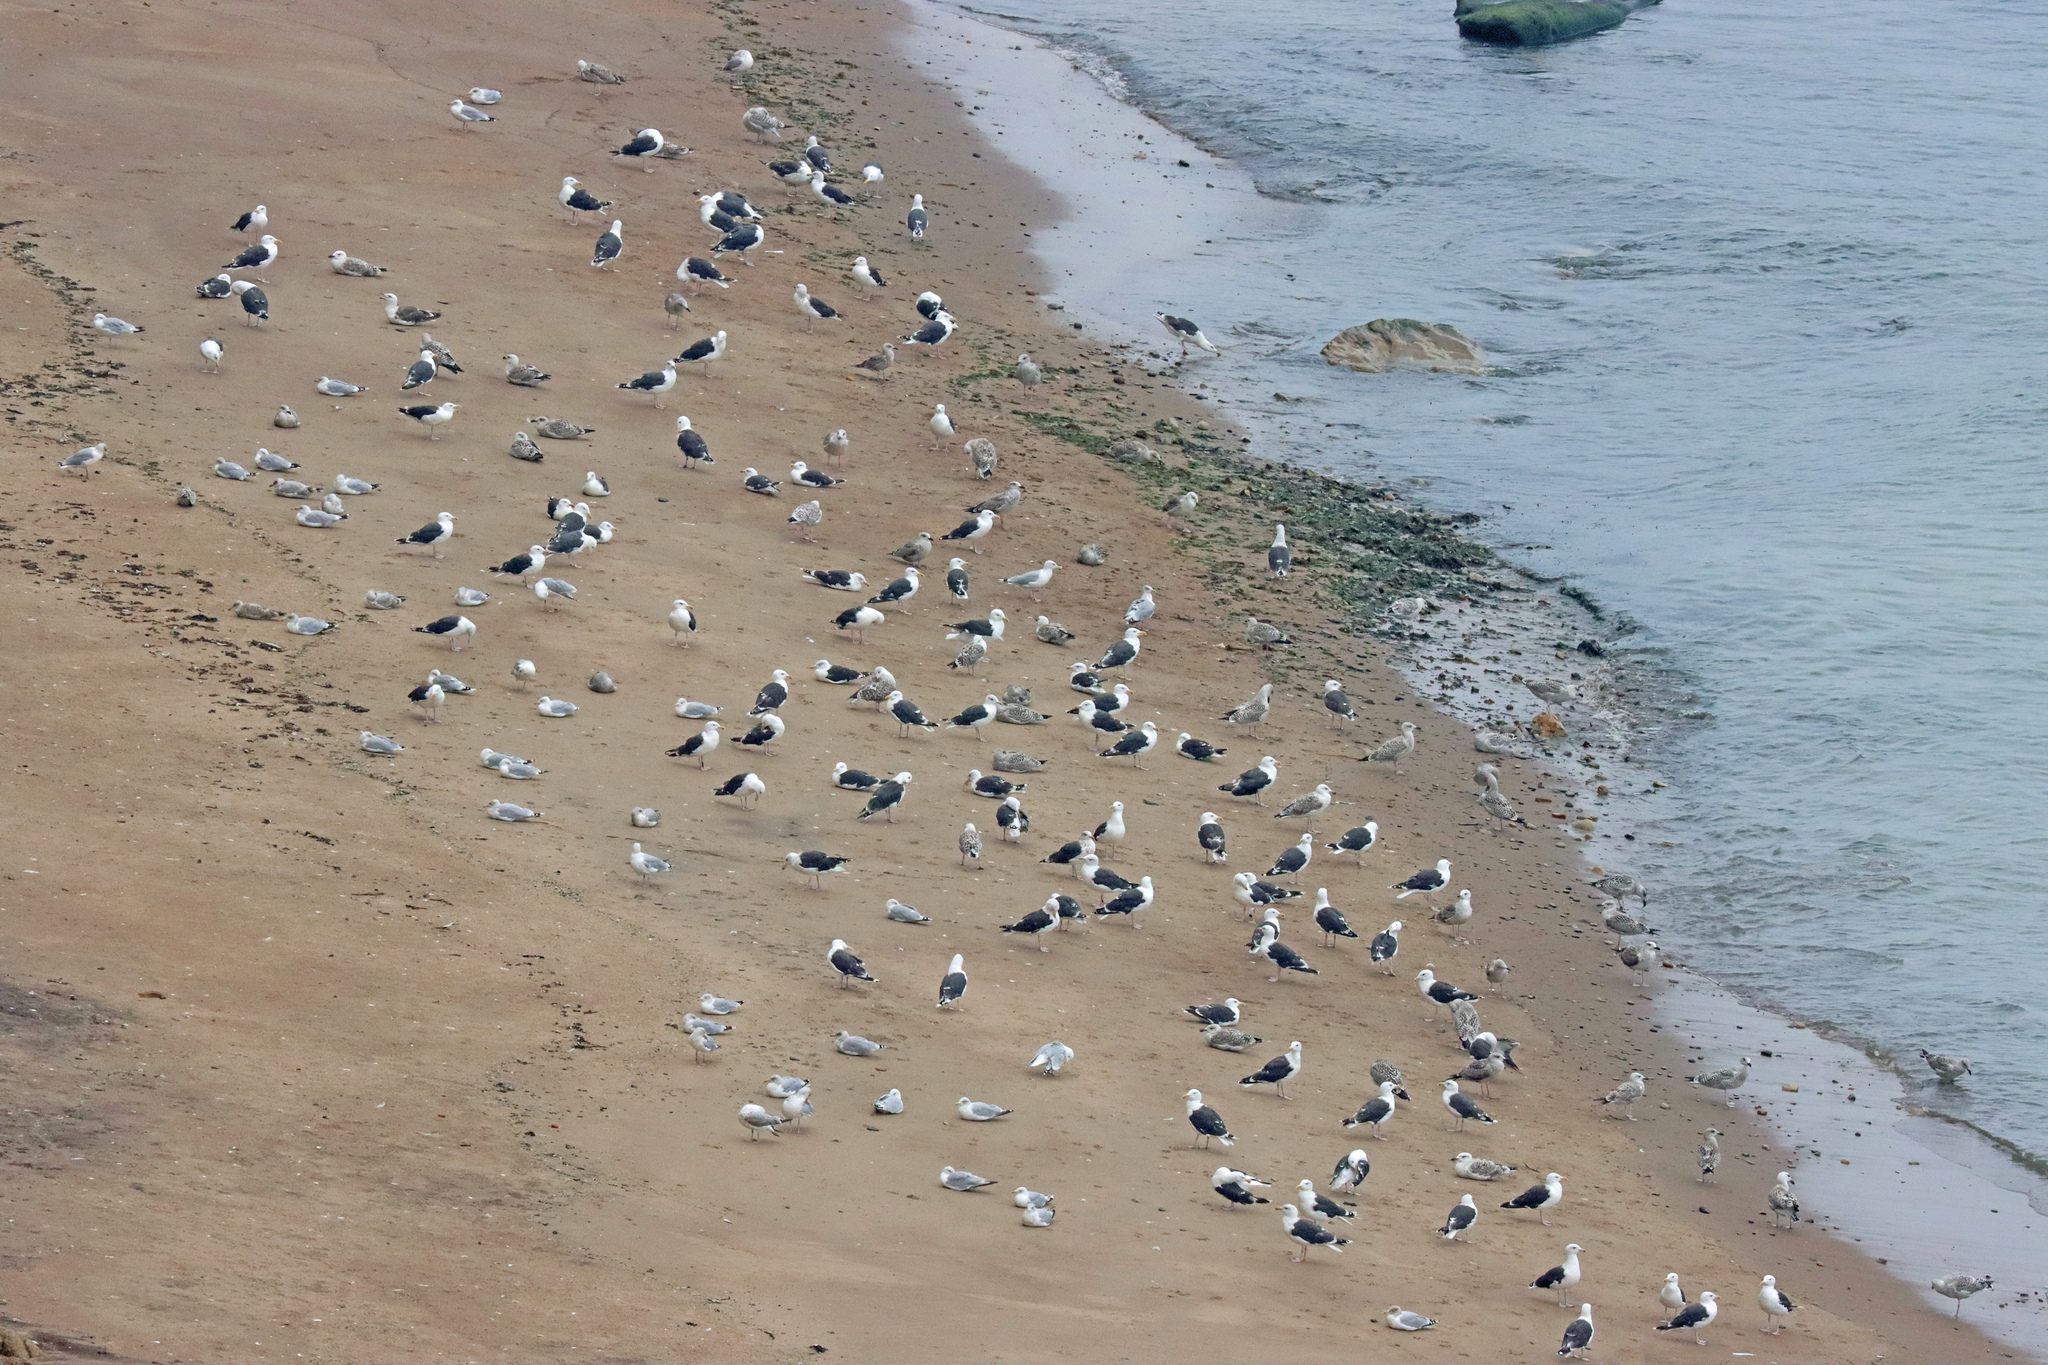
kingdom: Animalia
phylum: Chordata
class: Aves
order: Charadriiformes
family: Laridae
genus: Larus
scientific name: Larus argentatus
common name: Herring gull
